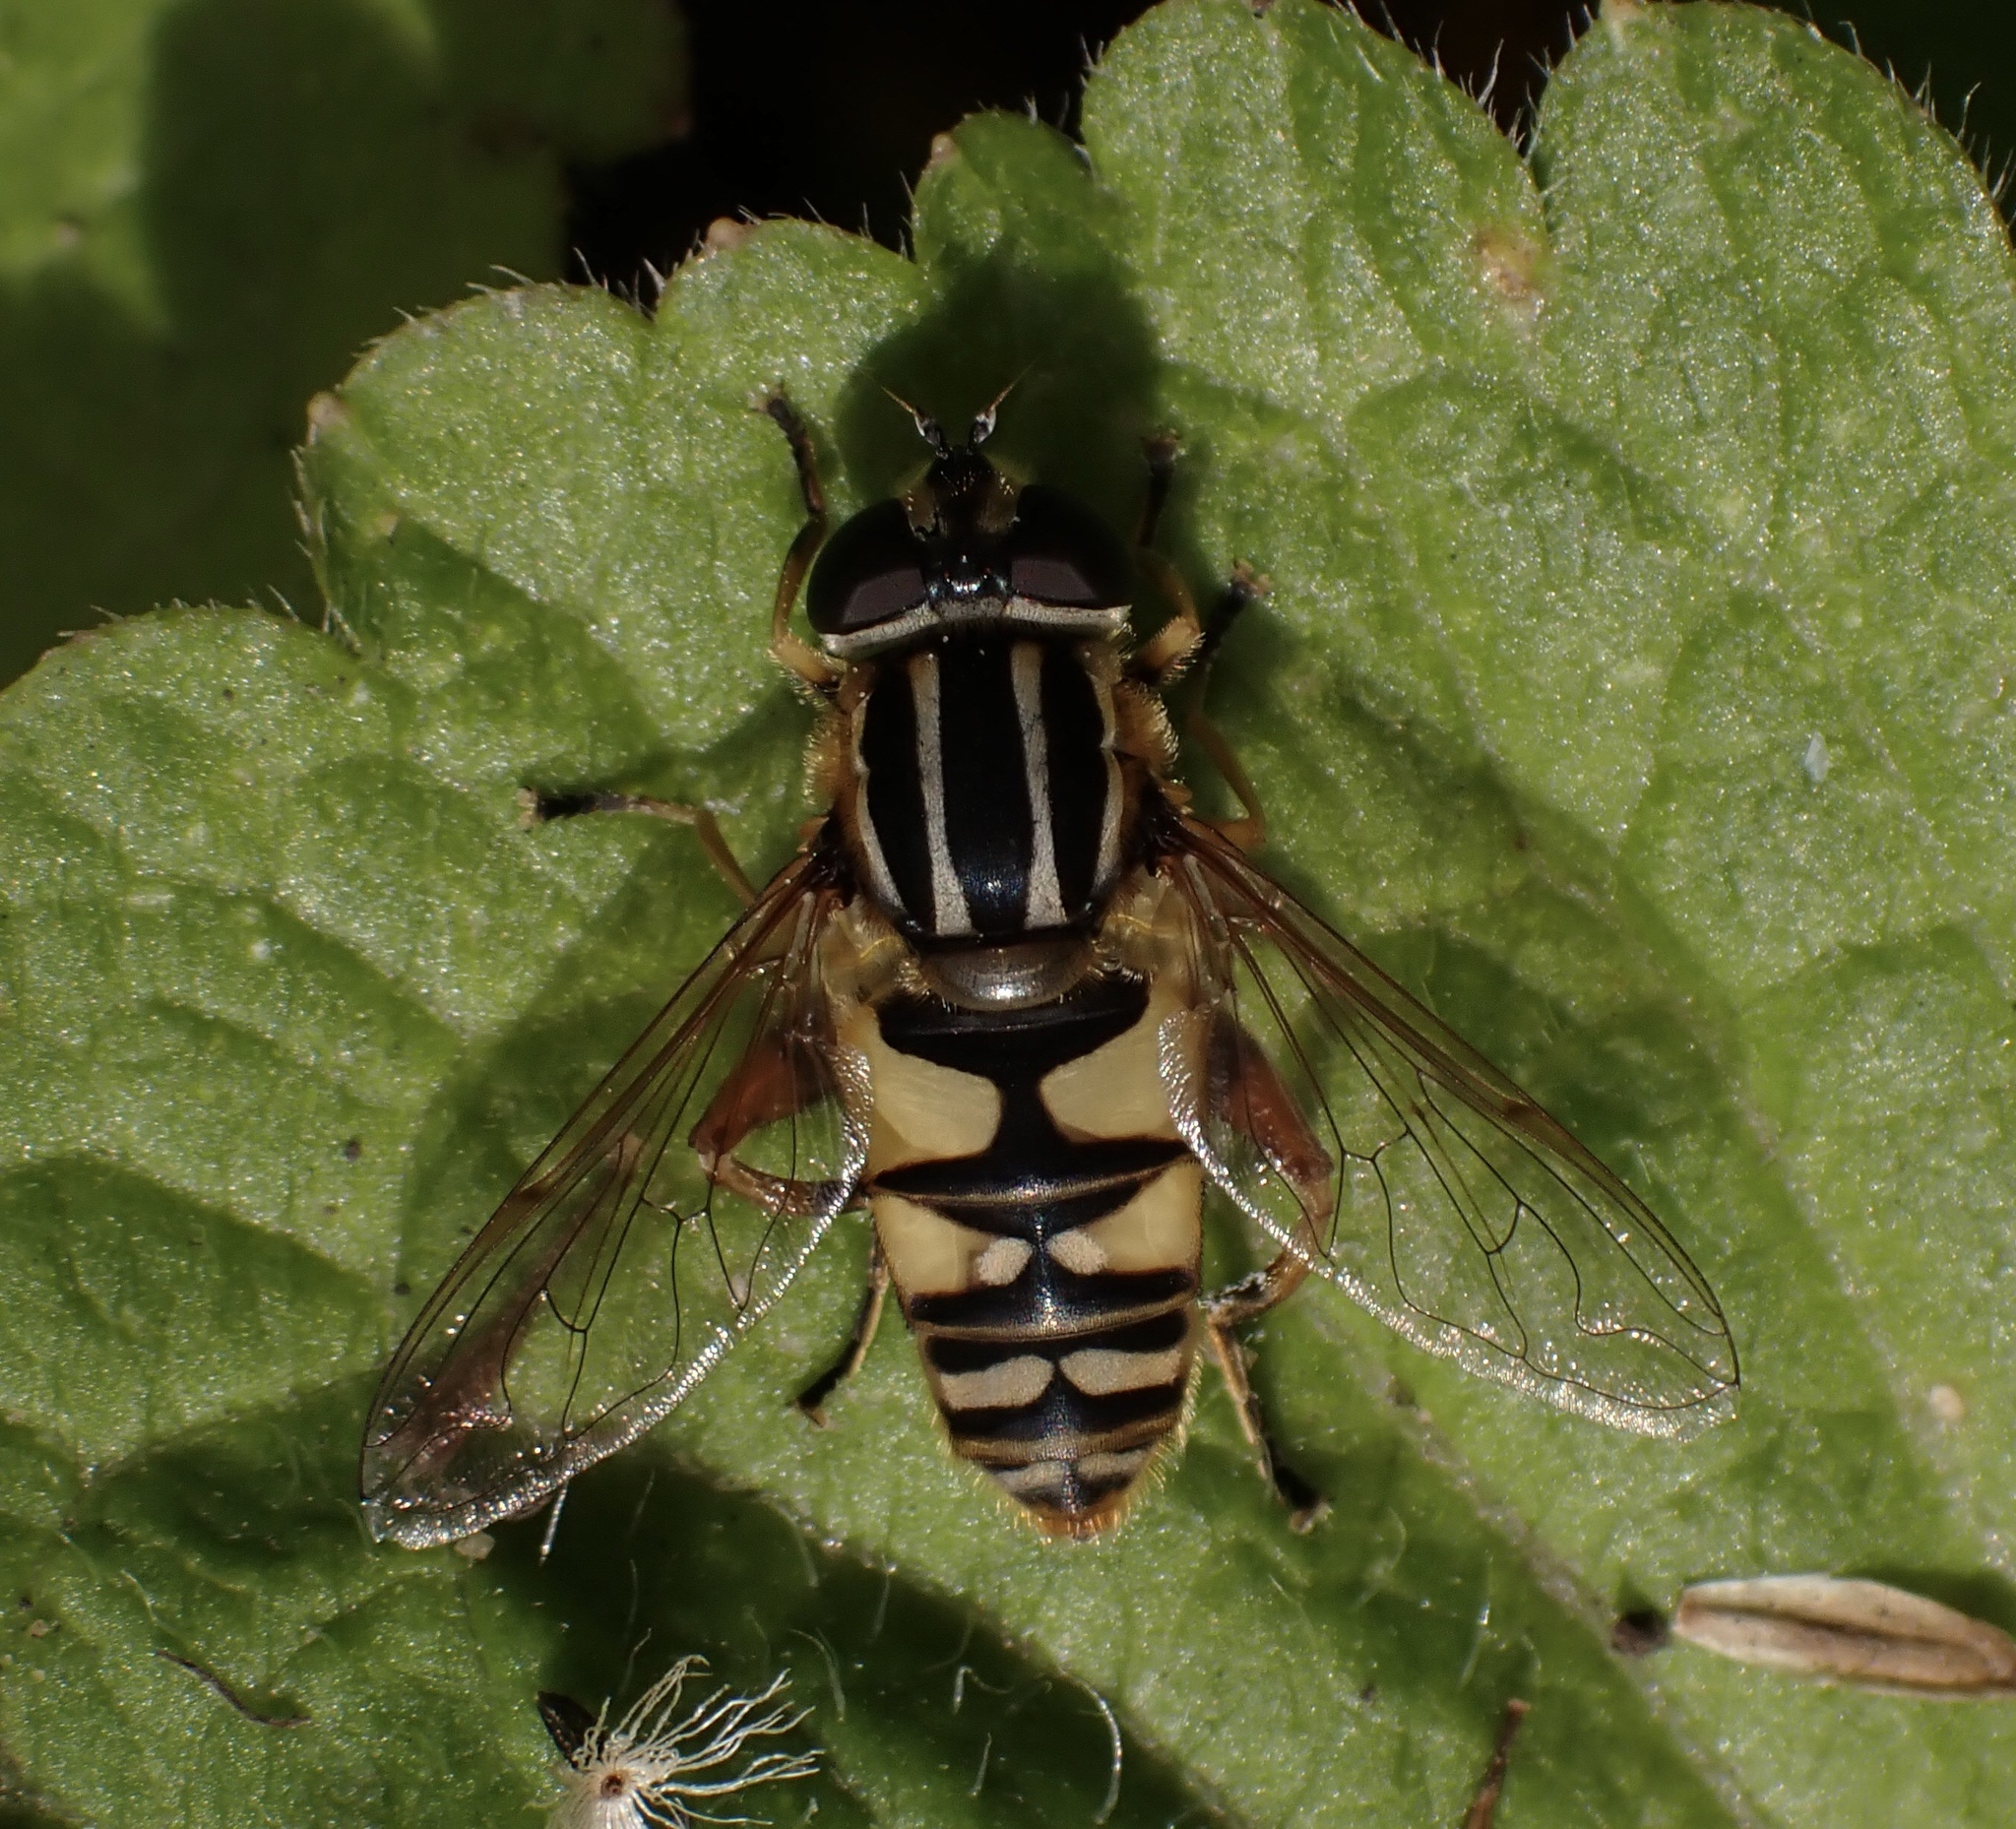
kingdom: Animalia
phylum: Arthropoda
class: Insecta
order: Diptera
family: Syrphidae
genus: Helophilus
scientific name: Helophilus pendulus
